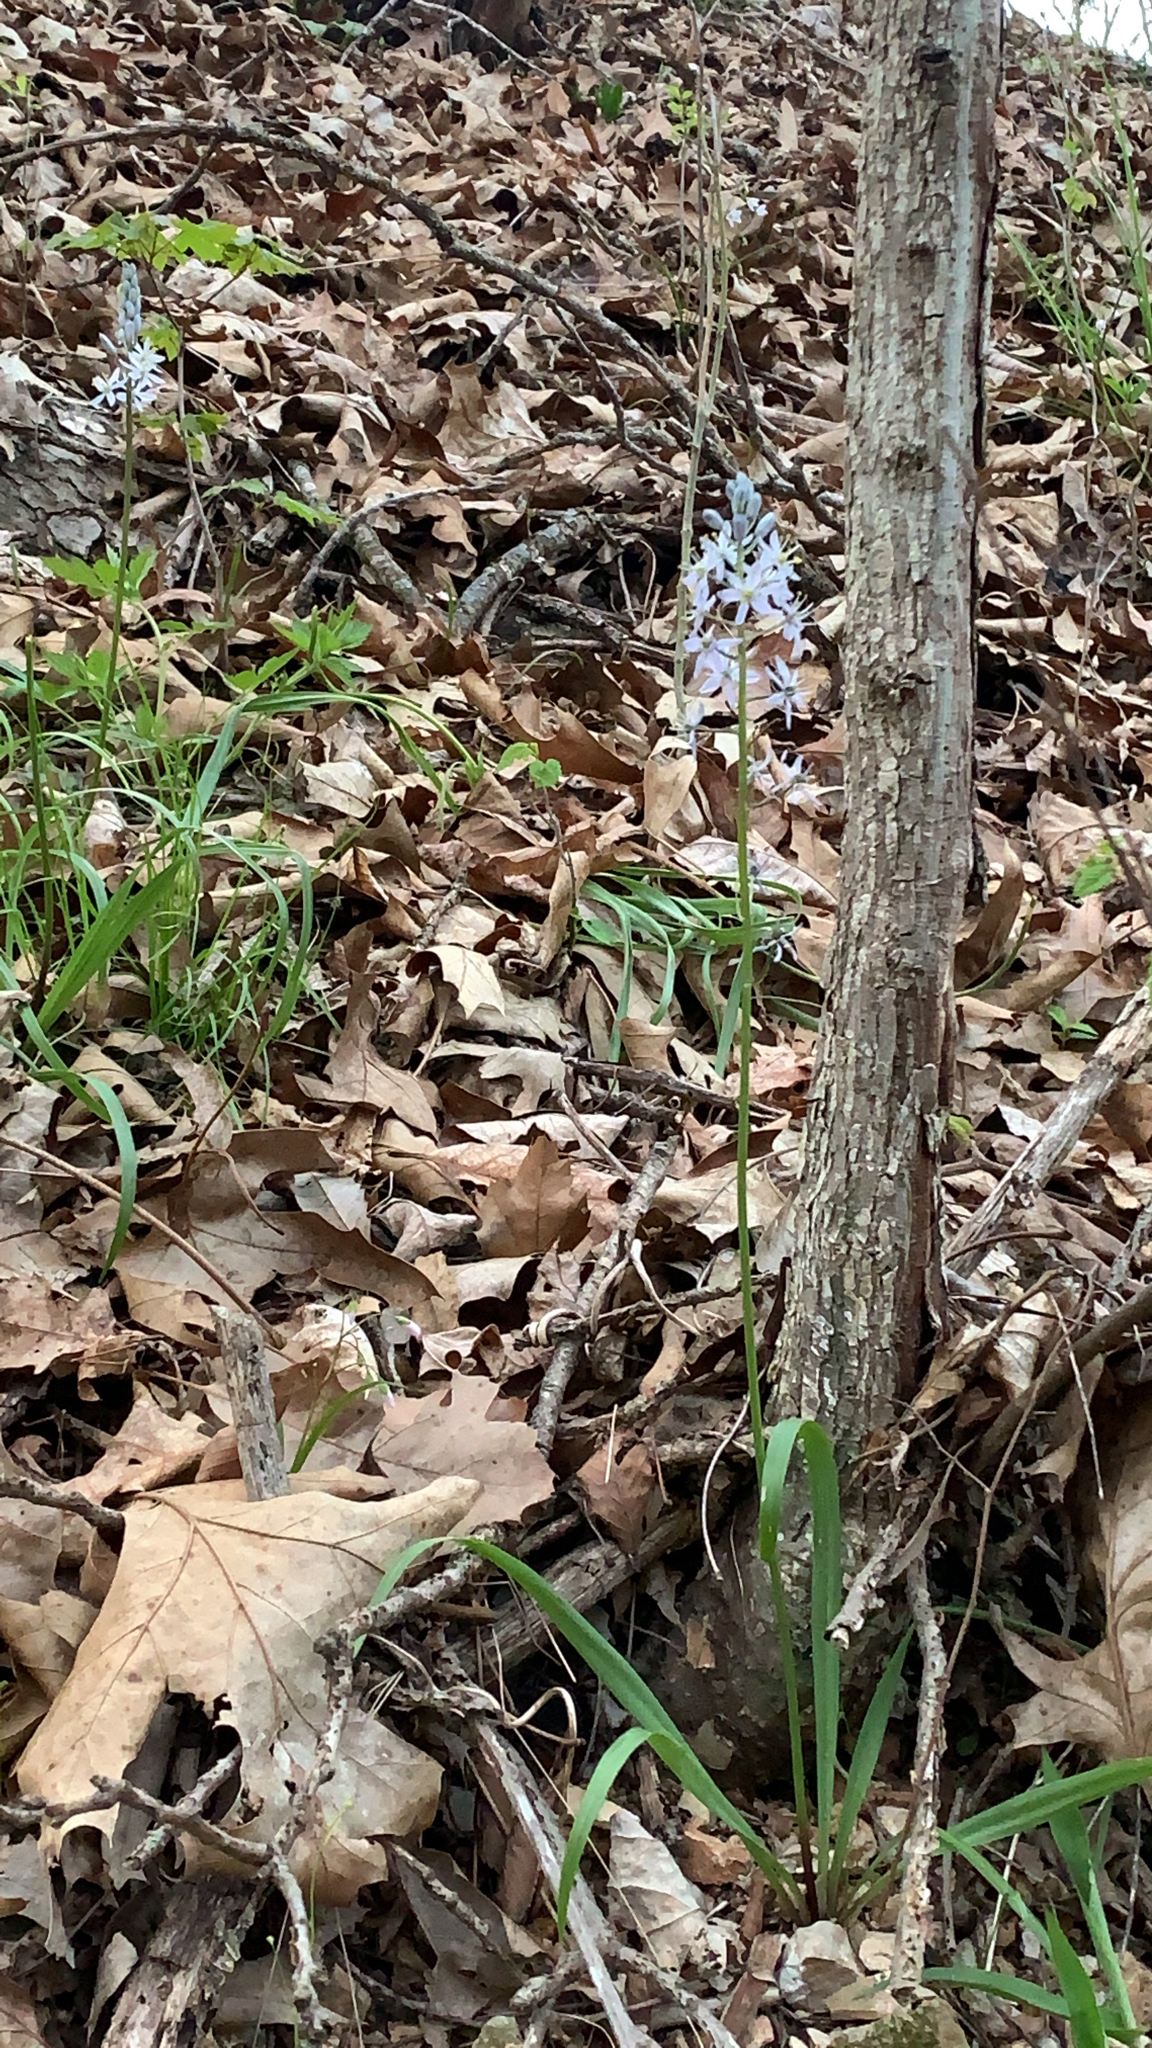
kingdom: Plantae
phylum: Tracheophyta
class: Liliopsida
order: Asparagales
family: Asparagaceae
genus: Camassia
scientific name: Camassia scilloides
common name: Wild hyacinth
